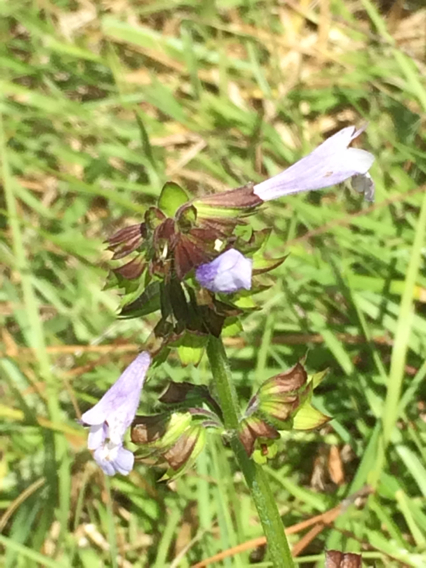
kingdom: Plantae
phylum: Tracheophyta
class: Magnoliopsida
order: Lamiales
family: Lamiaceae
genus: Salvia
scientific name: Salvia lyrata
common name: Cancerweed
